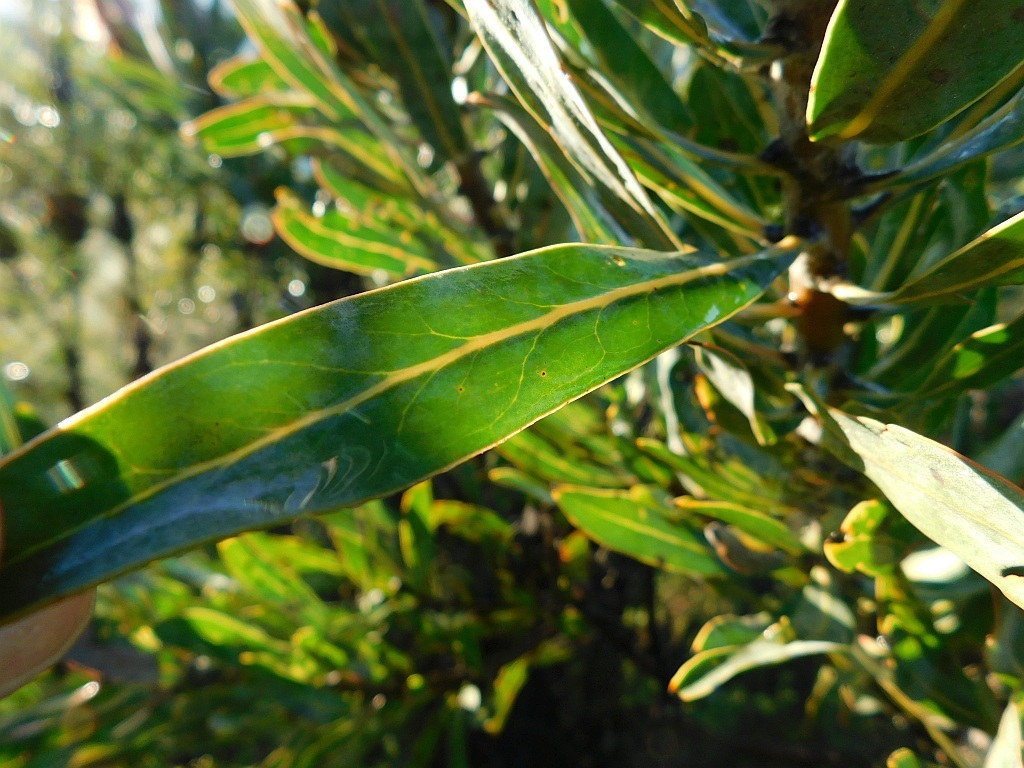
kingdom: Plantae
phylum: Tracheophyta
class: Magnoliopsida
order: Proteales
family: Proteaceae
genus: Protea
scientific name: Protea neriifolia
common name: Blue sugarbush
